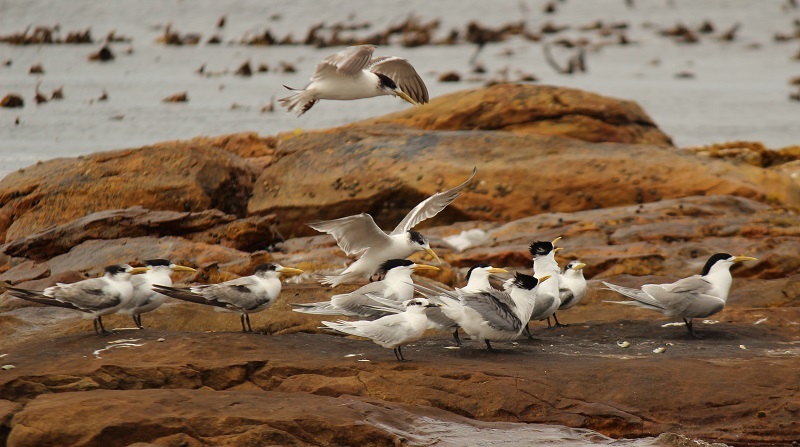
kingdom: Animalia
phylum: Chordata
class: Aves
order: Charadriiformes
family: Laridae
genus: Thalasseus
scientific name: Thalasseus bergii
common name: Greater crested tern
